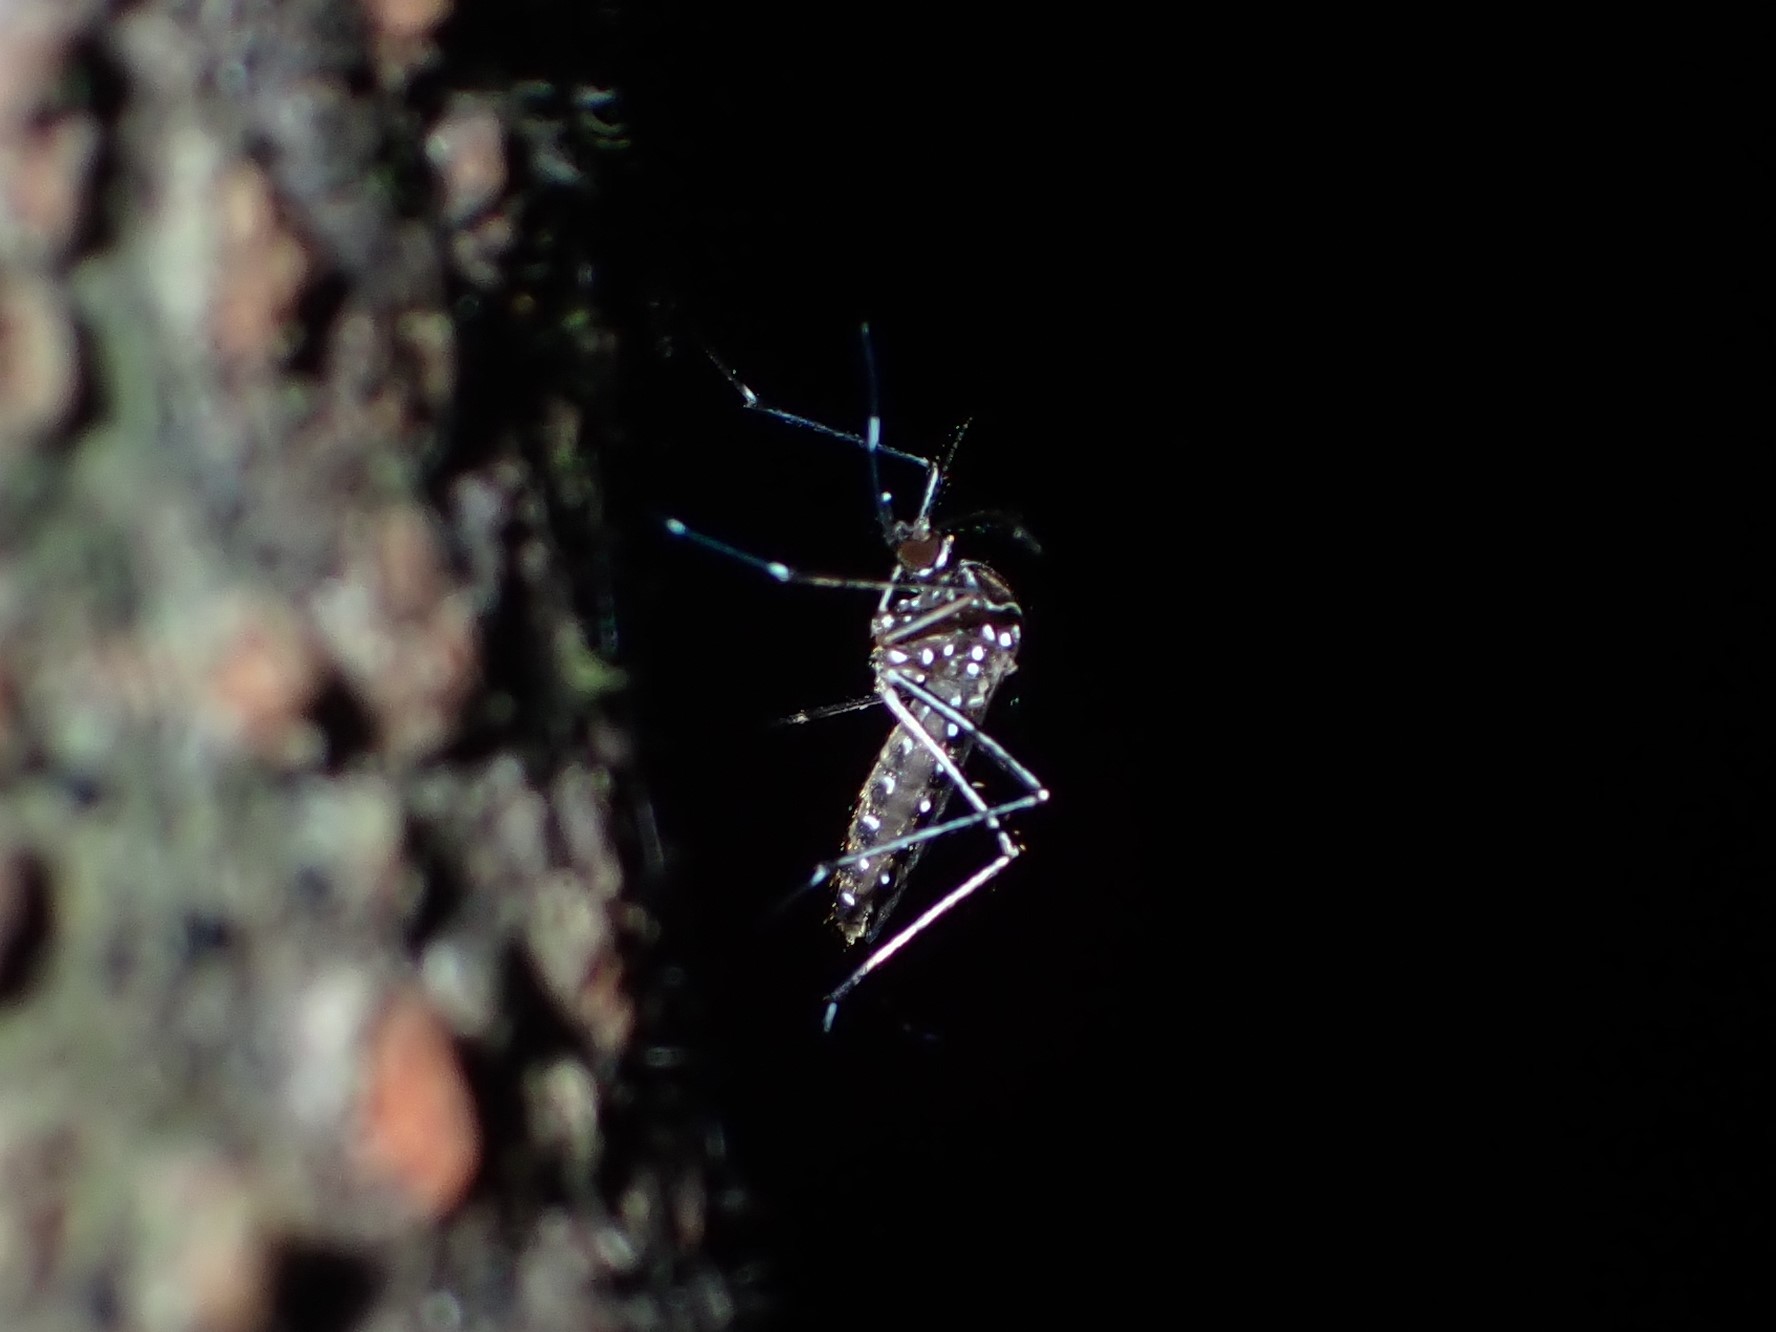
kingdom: Animalia
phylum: Arthropoda
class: Insecta
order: Diptera
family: Culicidae
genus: Aedes
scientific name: Aedes notoscriptus
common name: Australian backyard mosquito
